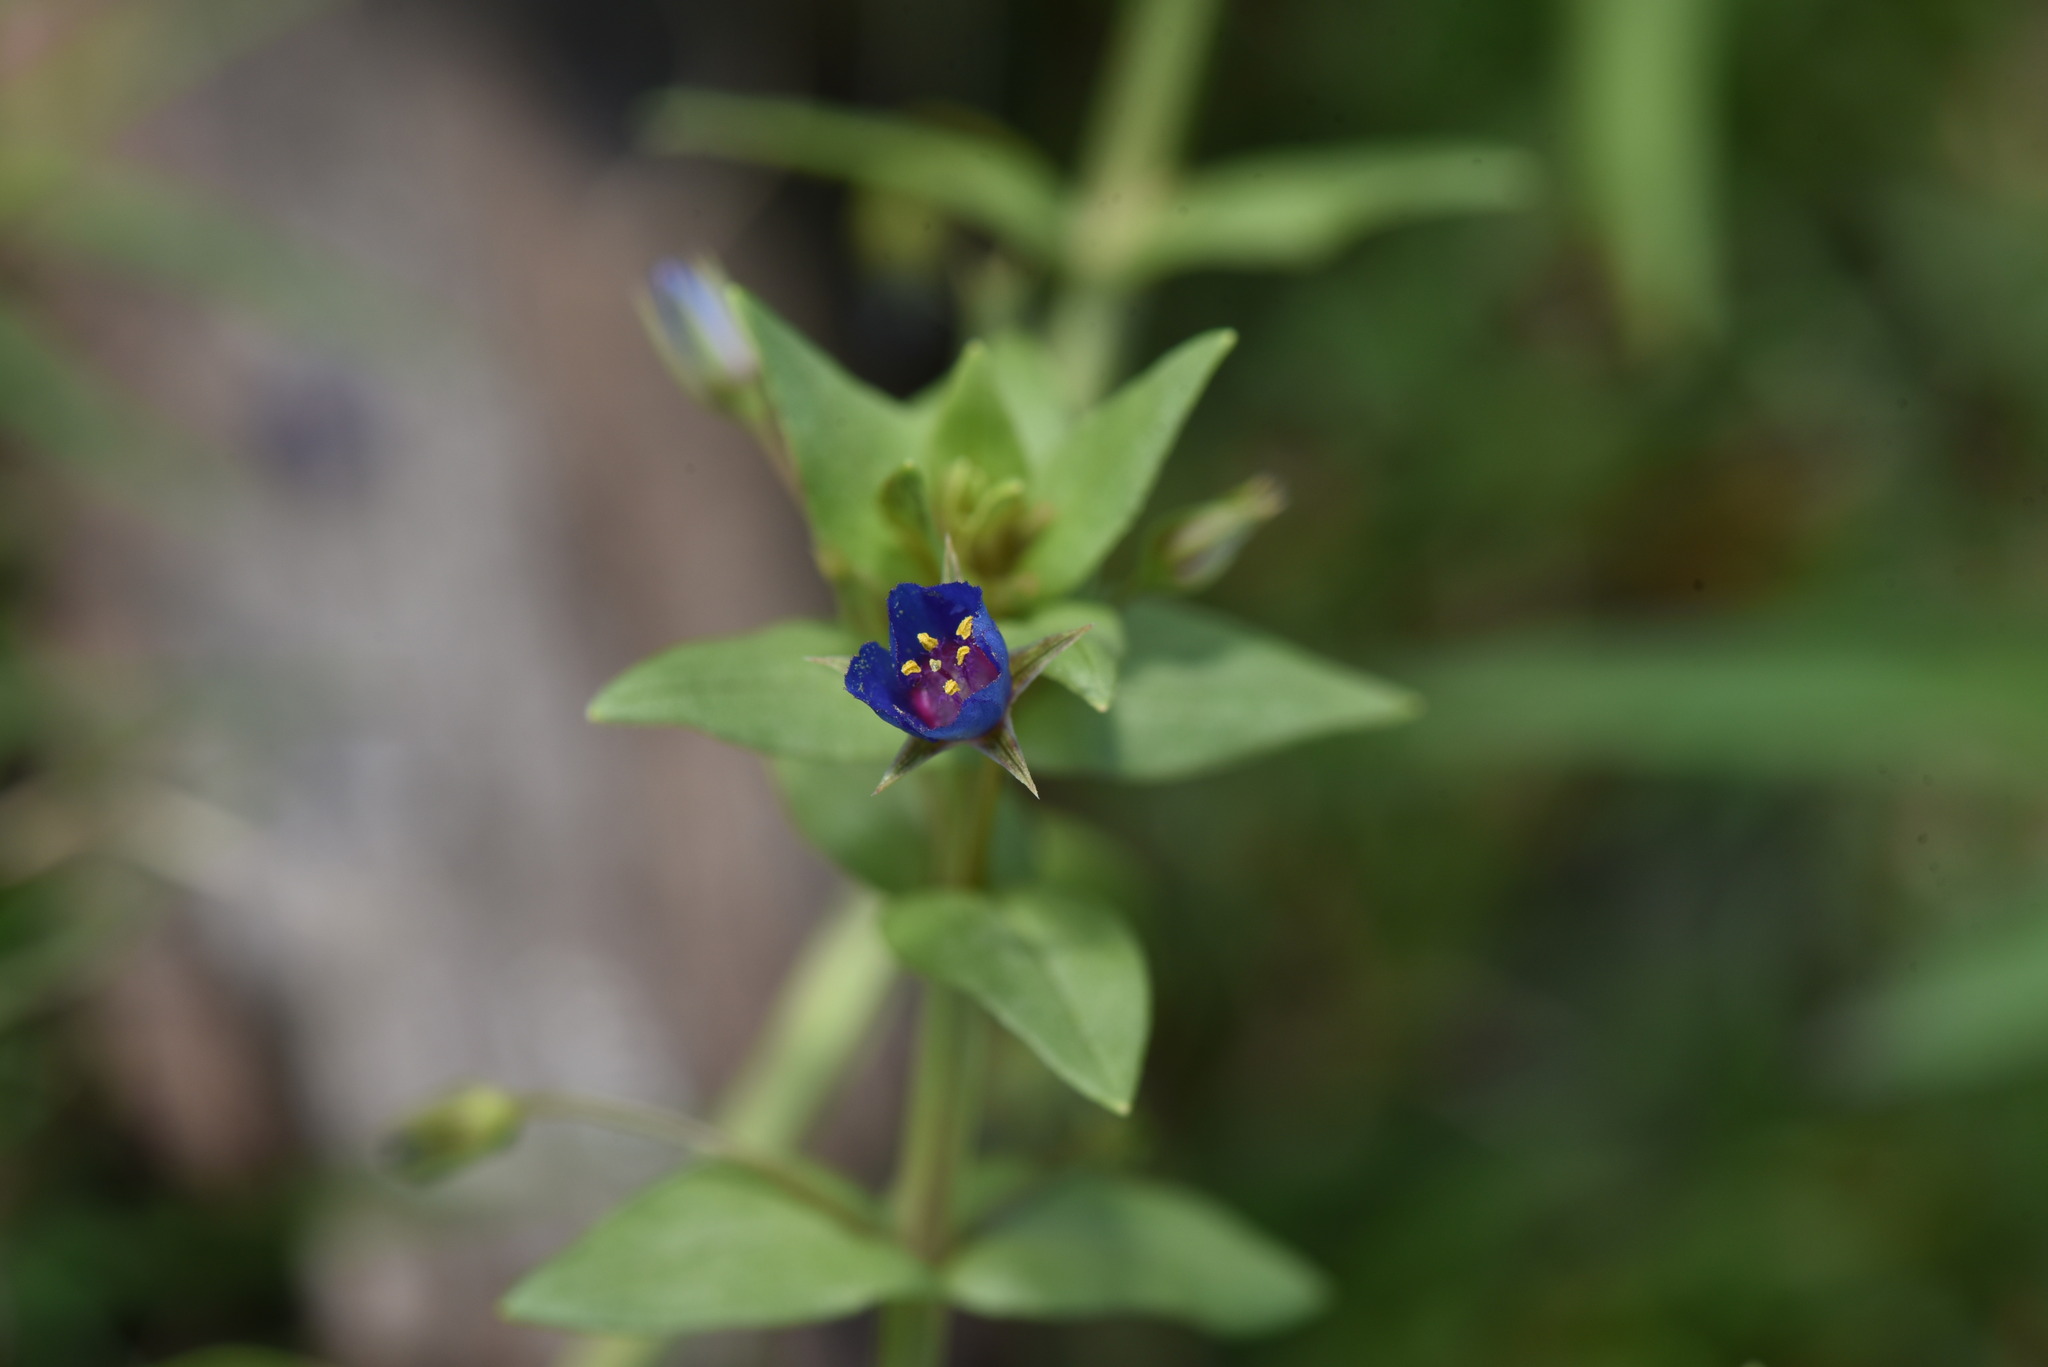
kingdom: Plantae
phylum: Tracheophyta
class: Magnoliopsida
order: Ericales
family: Primulaceae
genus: Lysimachia
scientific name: Lysimachia loeflingii
